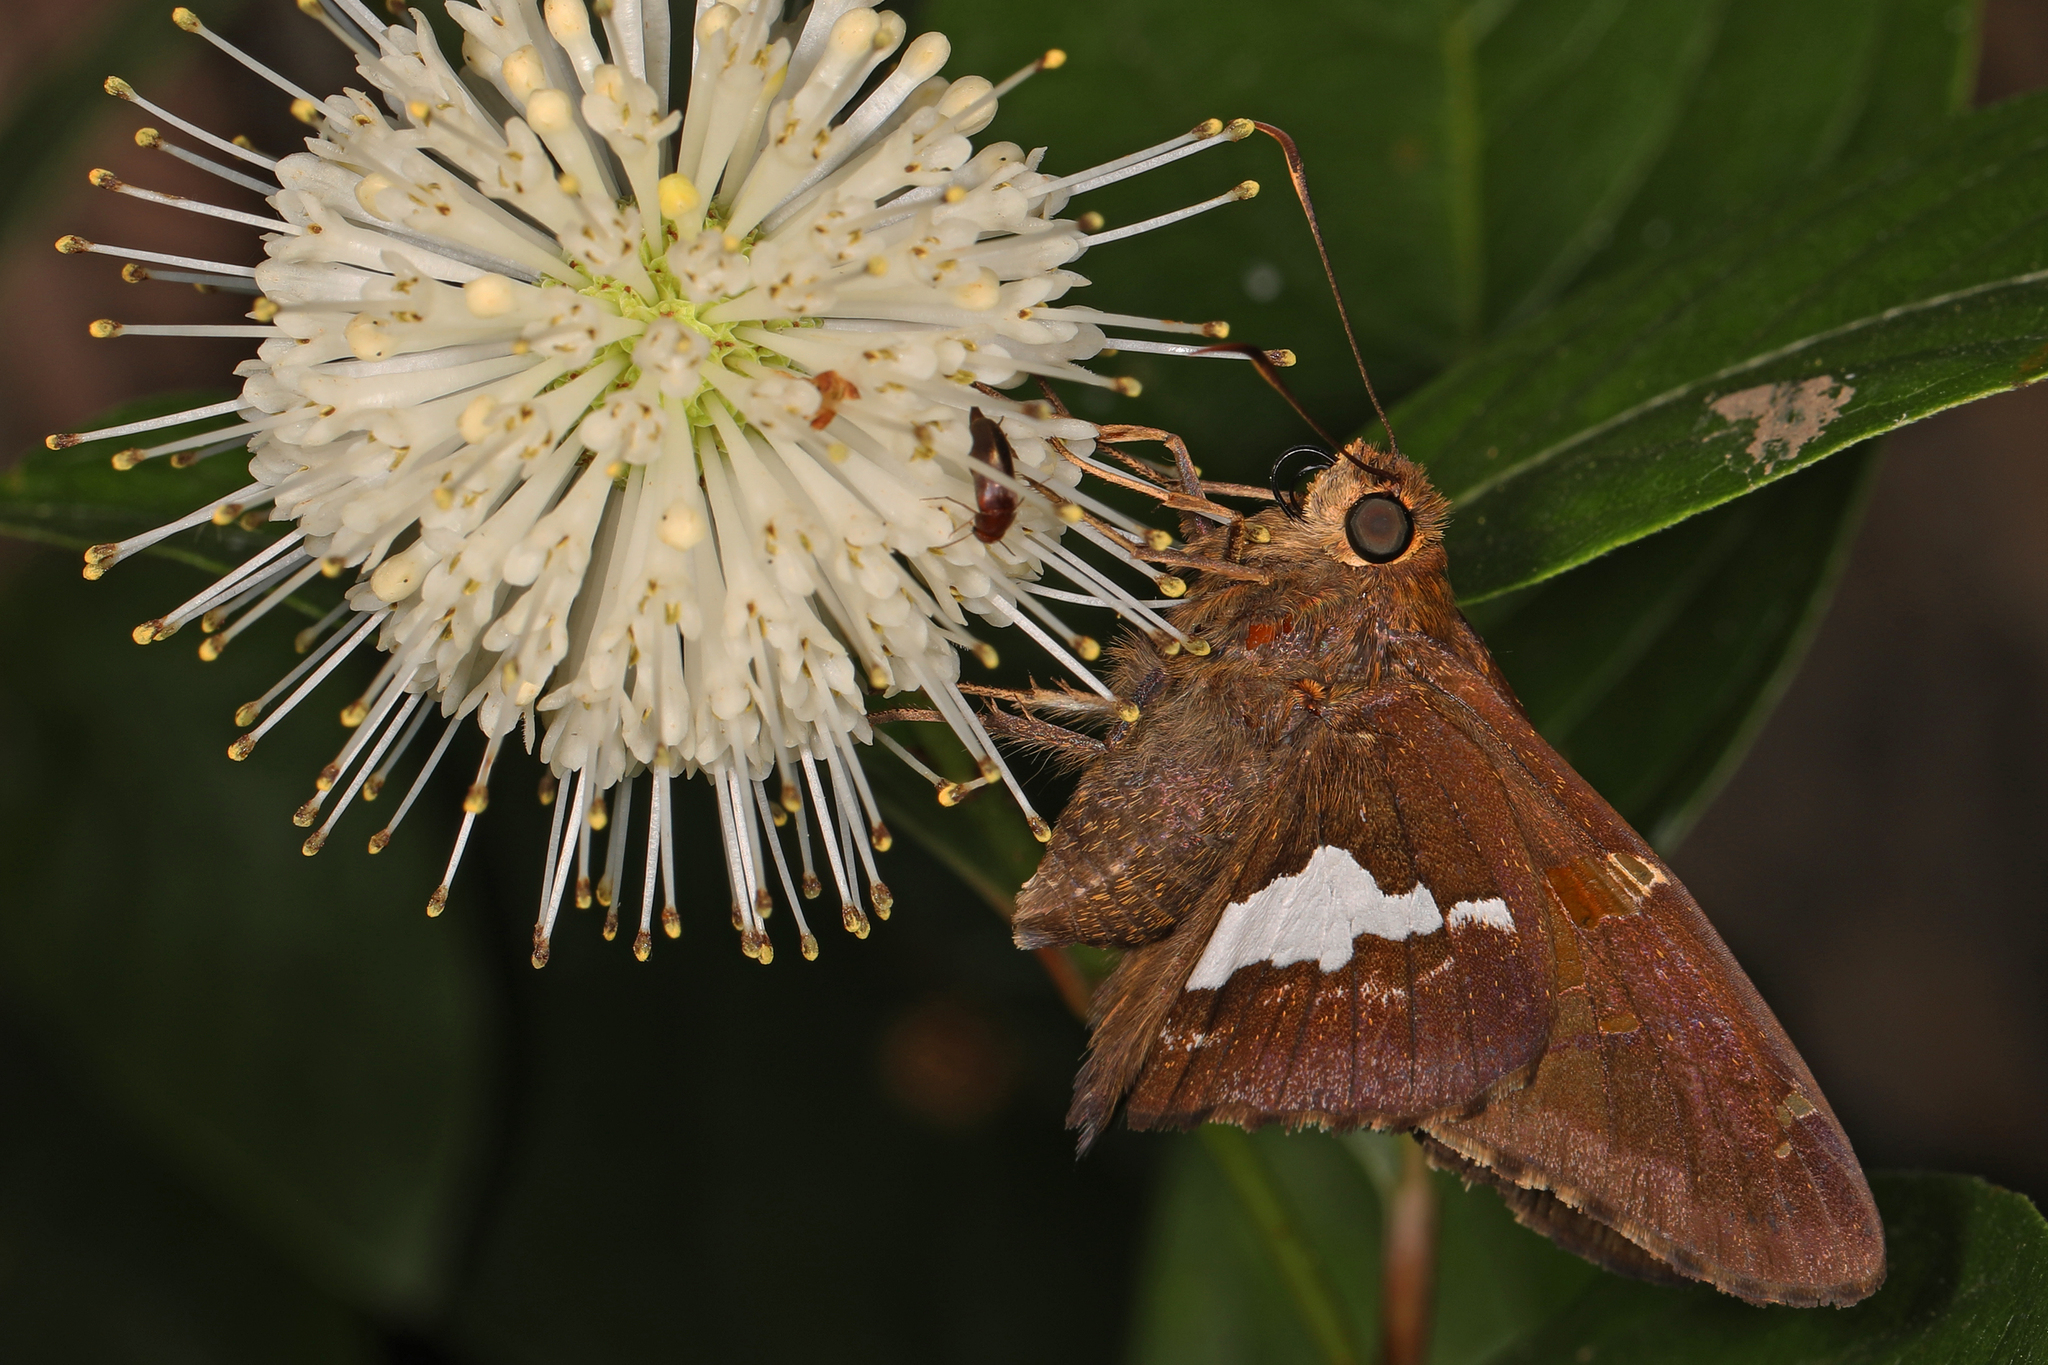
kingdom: Animalia
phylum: Arthropoda
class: Insecta
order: Lepidoptera
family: Hesperiidae
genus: Epargyreus
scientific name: Epargyreus clarus
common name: Silver-spotted skipper
